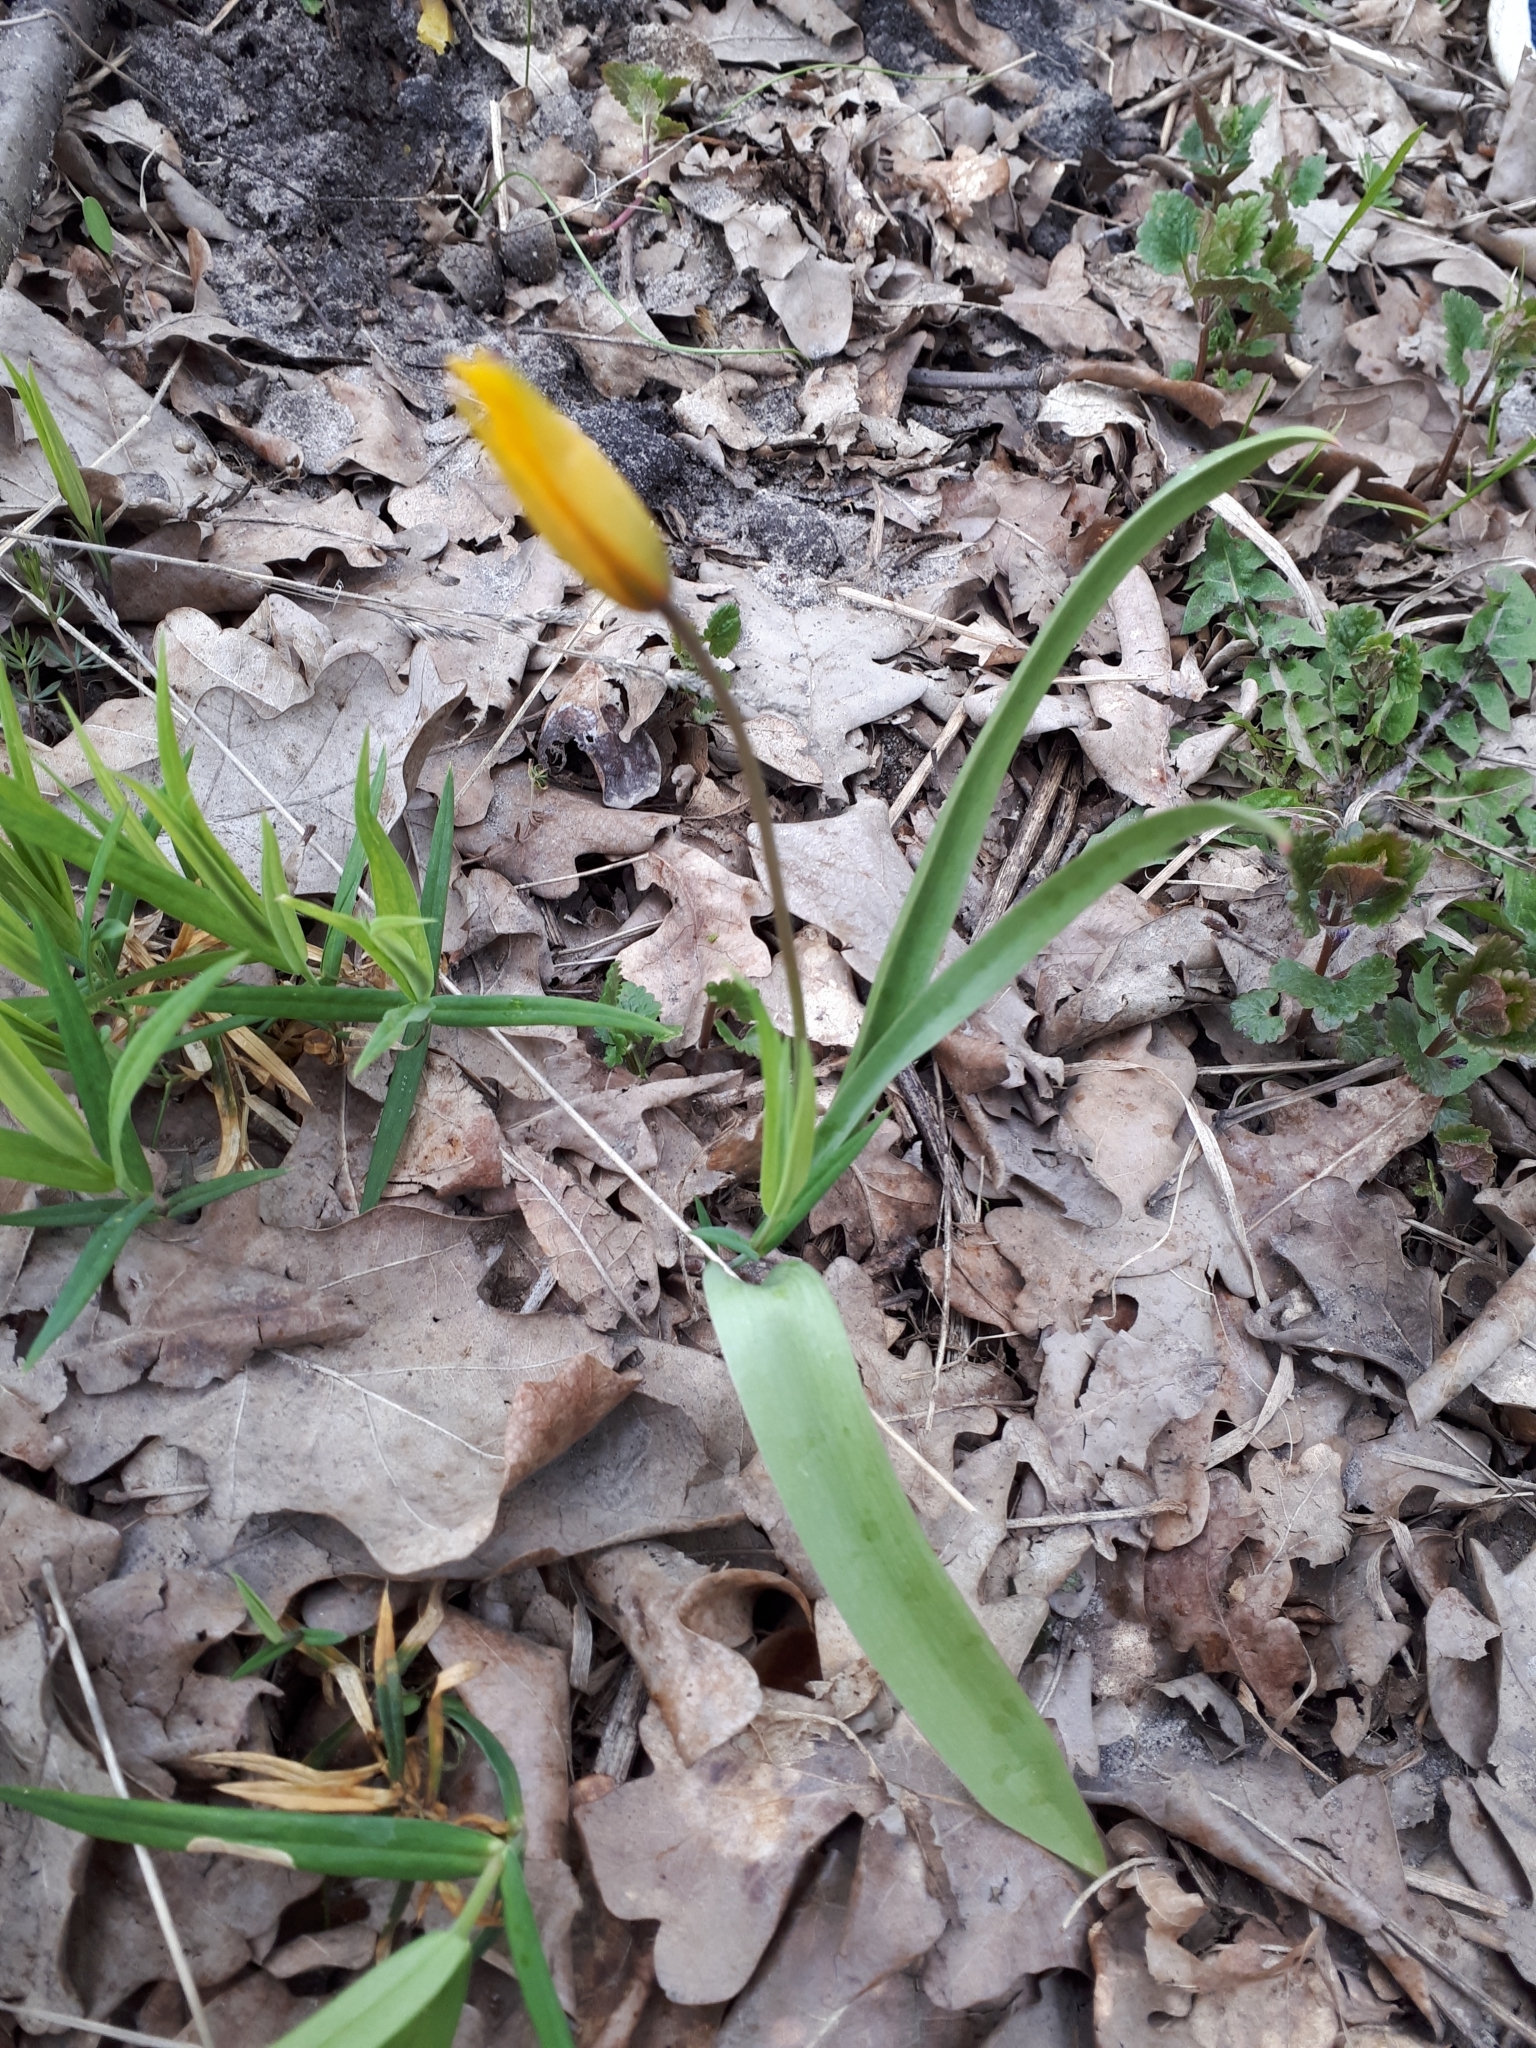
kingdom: Plantae
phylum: Tracheophyta
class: Liliopsida
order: Liliales
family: Liliaceae
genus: Tulipa
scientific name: Tulipa sylvestris
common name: Wild tulip
